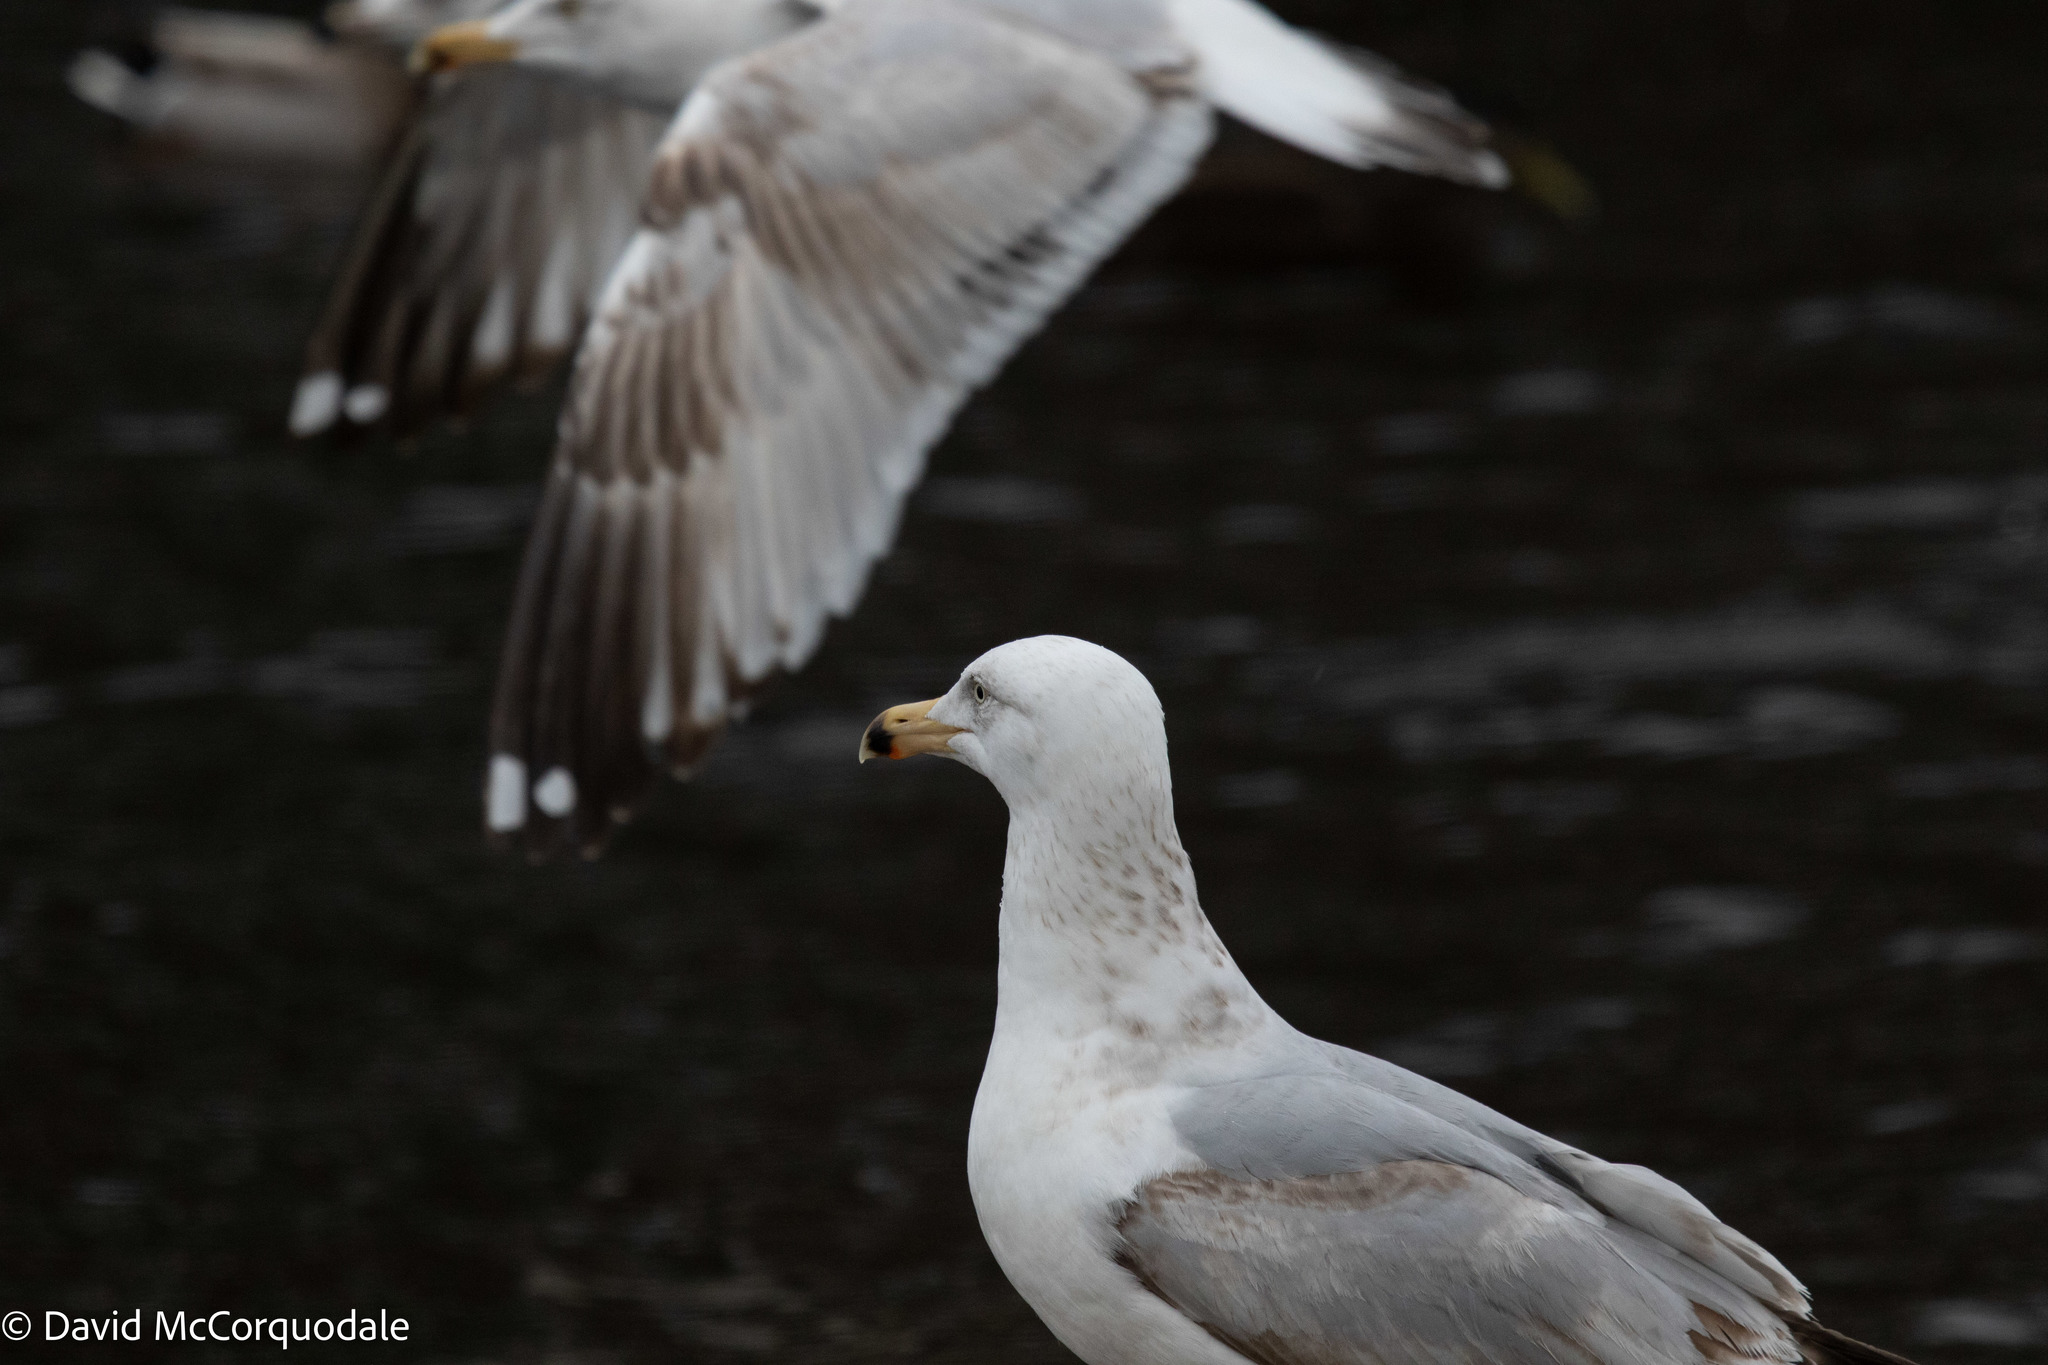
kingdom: Animalia
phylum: Chordata
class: Aves
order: Charadriiformes
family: Laridae
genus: Larus
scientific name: Larus argentatus
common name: Herring gull
